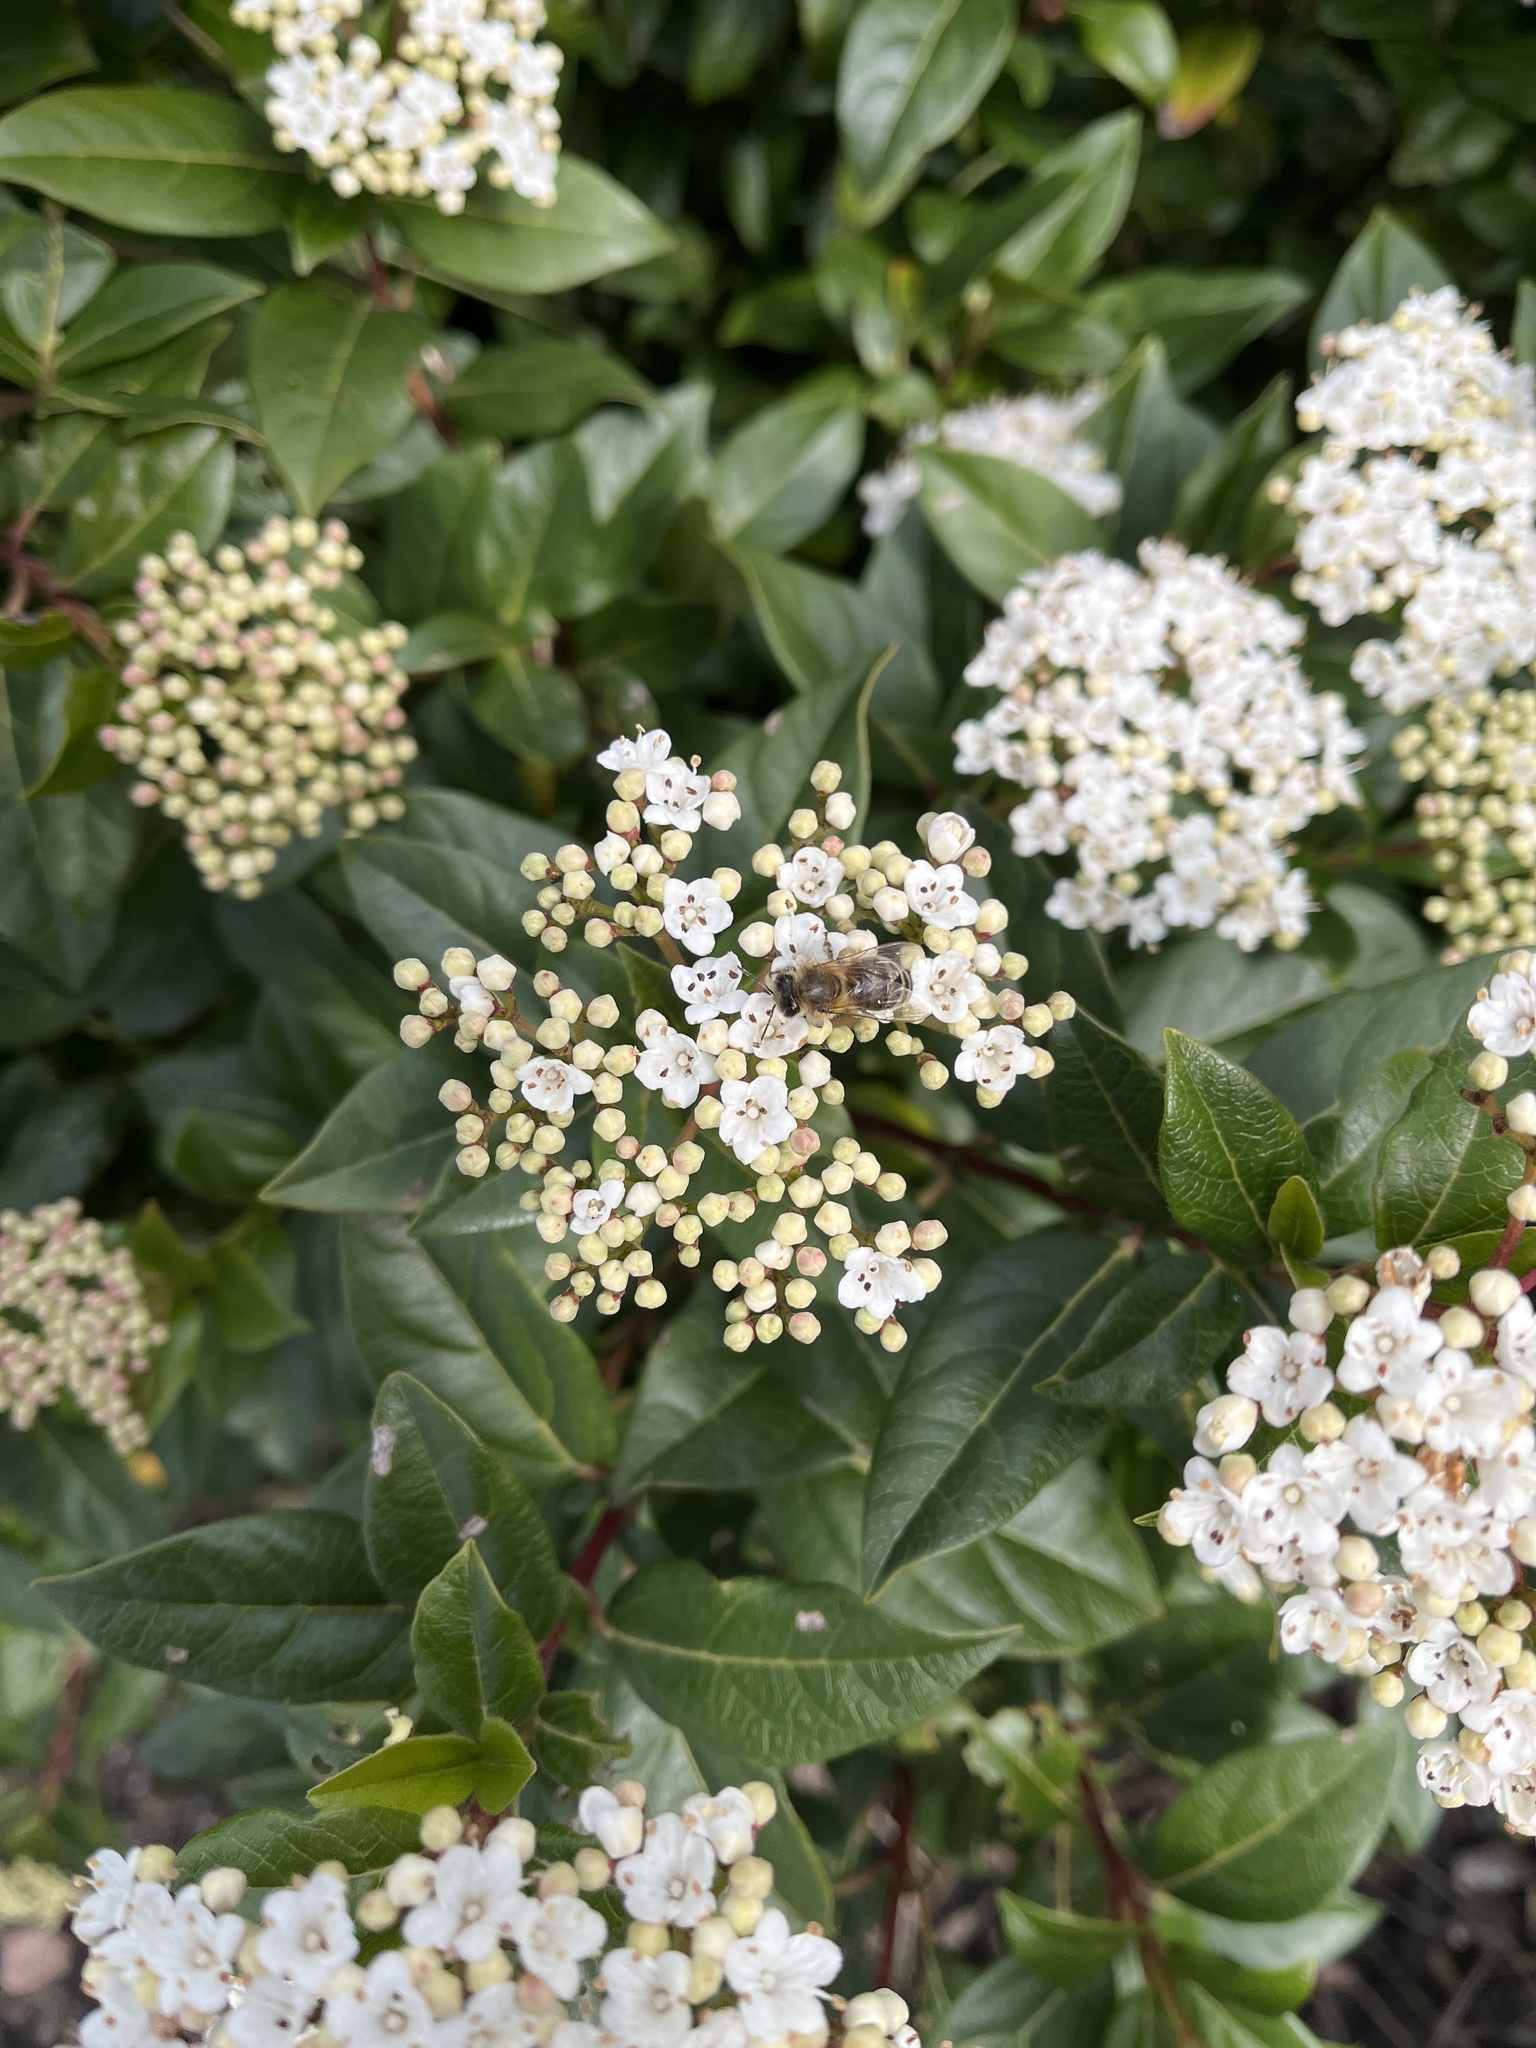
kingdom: Animalia
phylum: Arthropoda
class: Insecta
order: Hymenoptera
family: Apidae
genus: Apis
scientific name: Apis mellifera
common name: Honey bee
